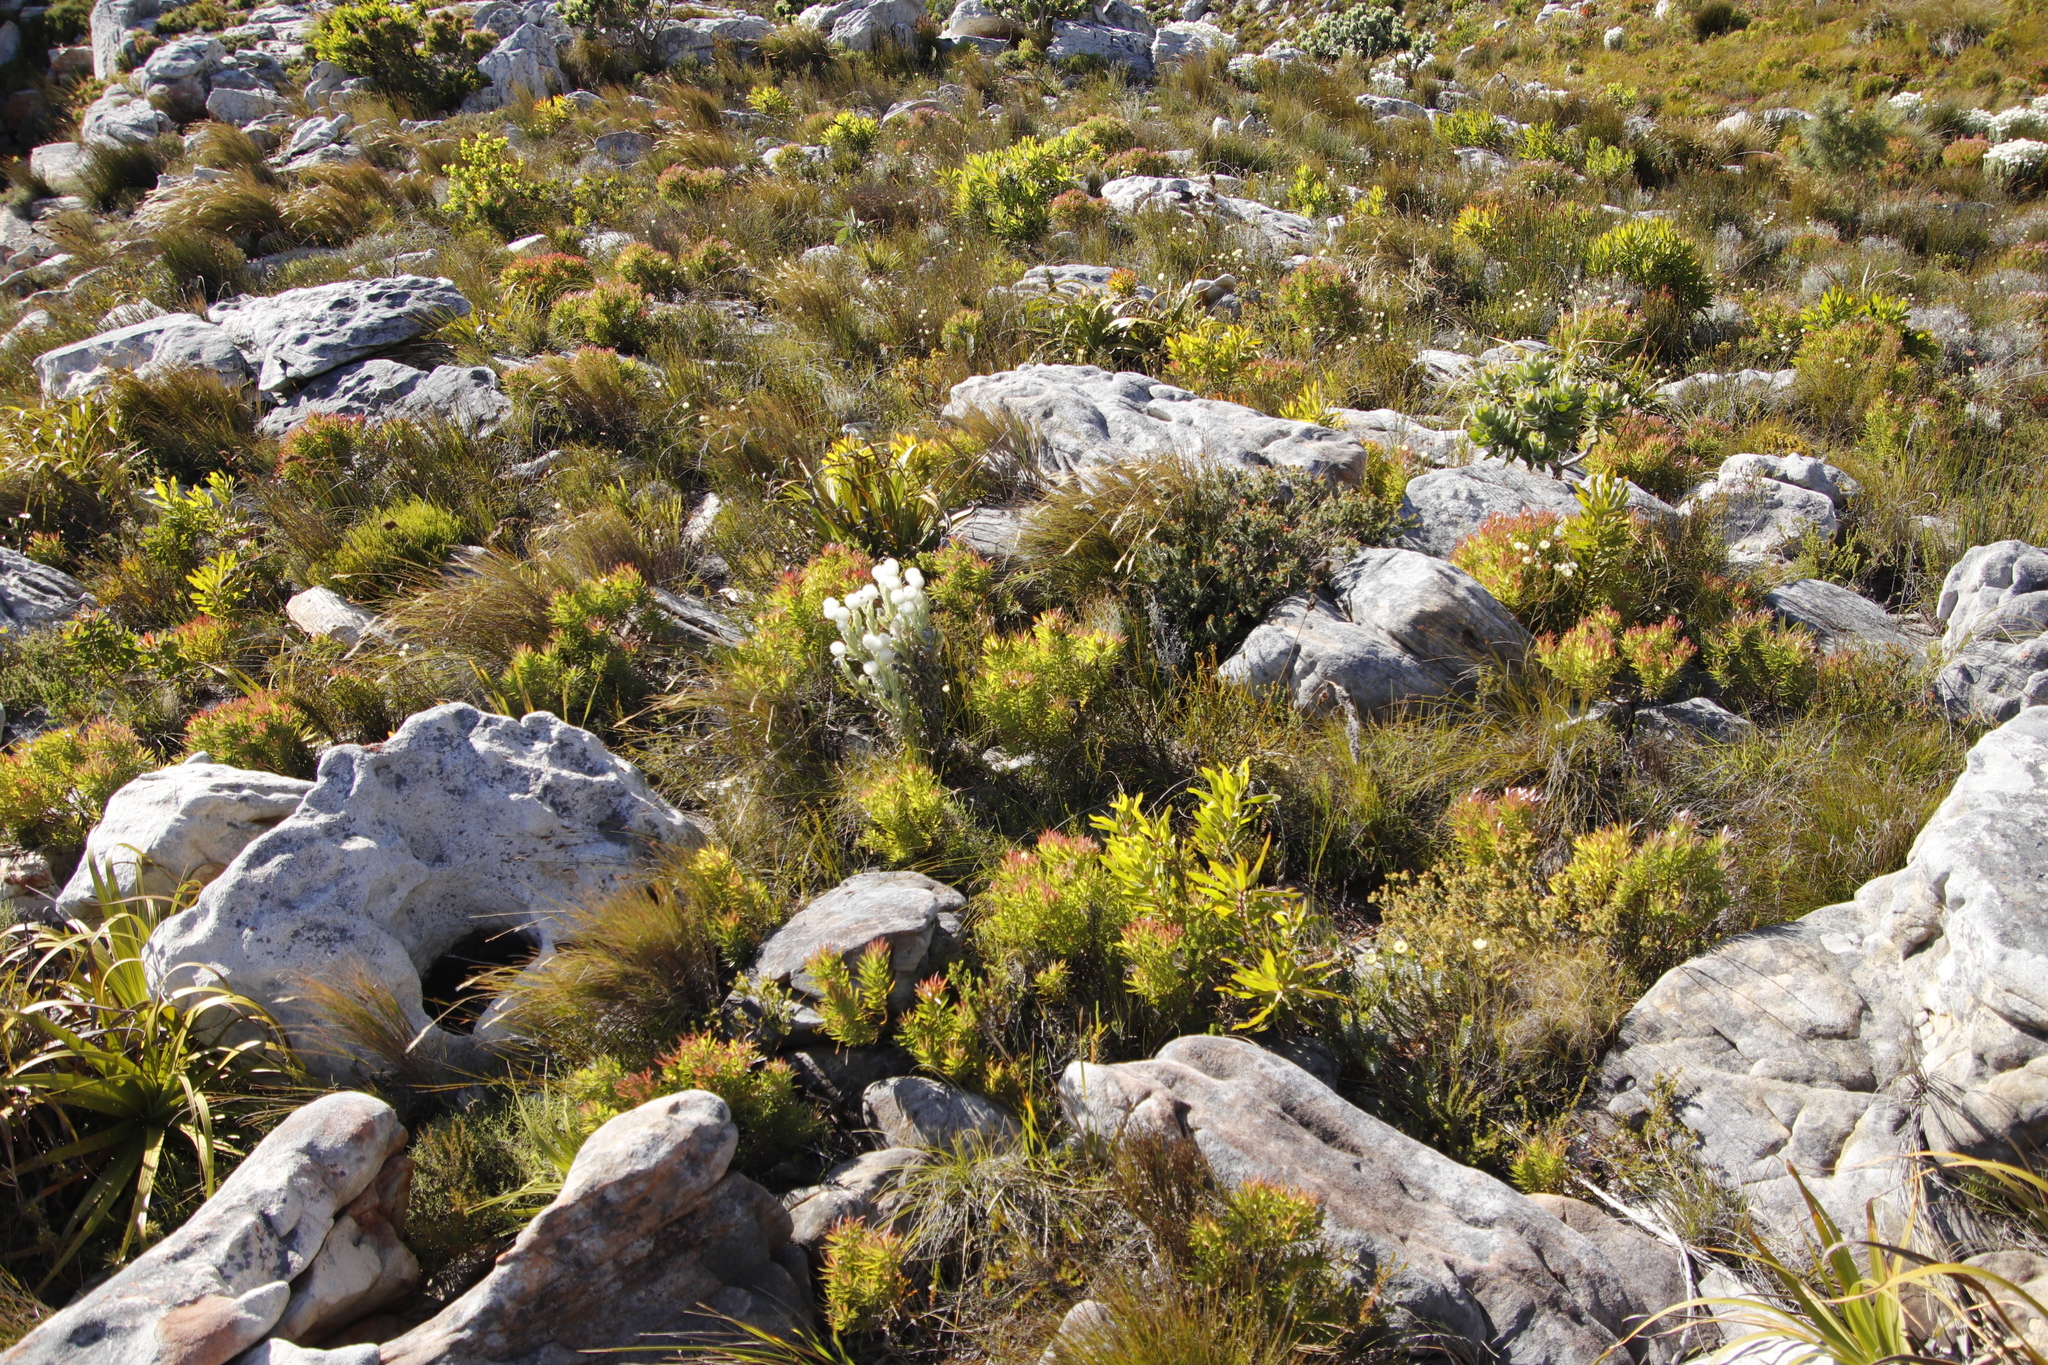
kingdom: Plantae
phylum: Tracheophyta
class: Magnoliopsida
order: Proteales
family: Proteaceae
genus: Leucadendron
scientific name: Leucadendron xanthoconus
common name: Sickle-leaf conebush
